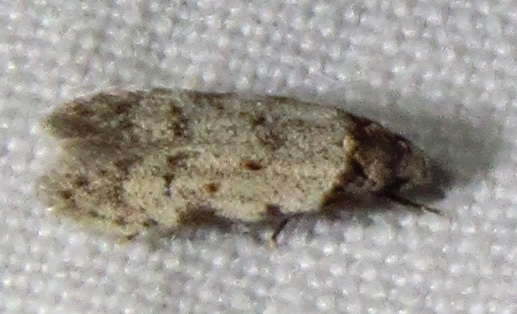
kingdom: Animalia
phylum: Arthropoda
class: Insecta
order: Lepidoptera
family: Autostichidae
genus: Taygete
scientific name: Taygete attributella
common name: Triangle-marked twirler moth
